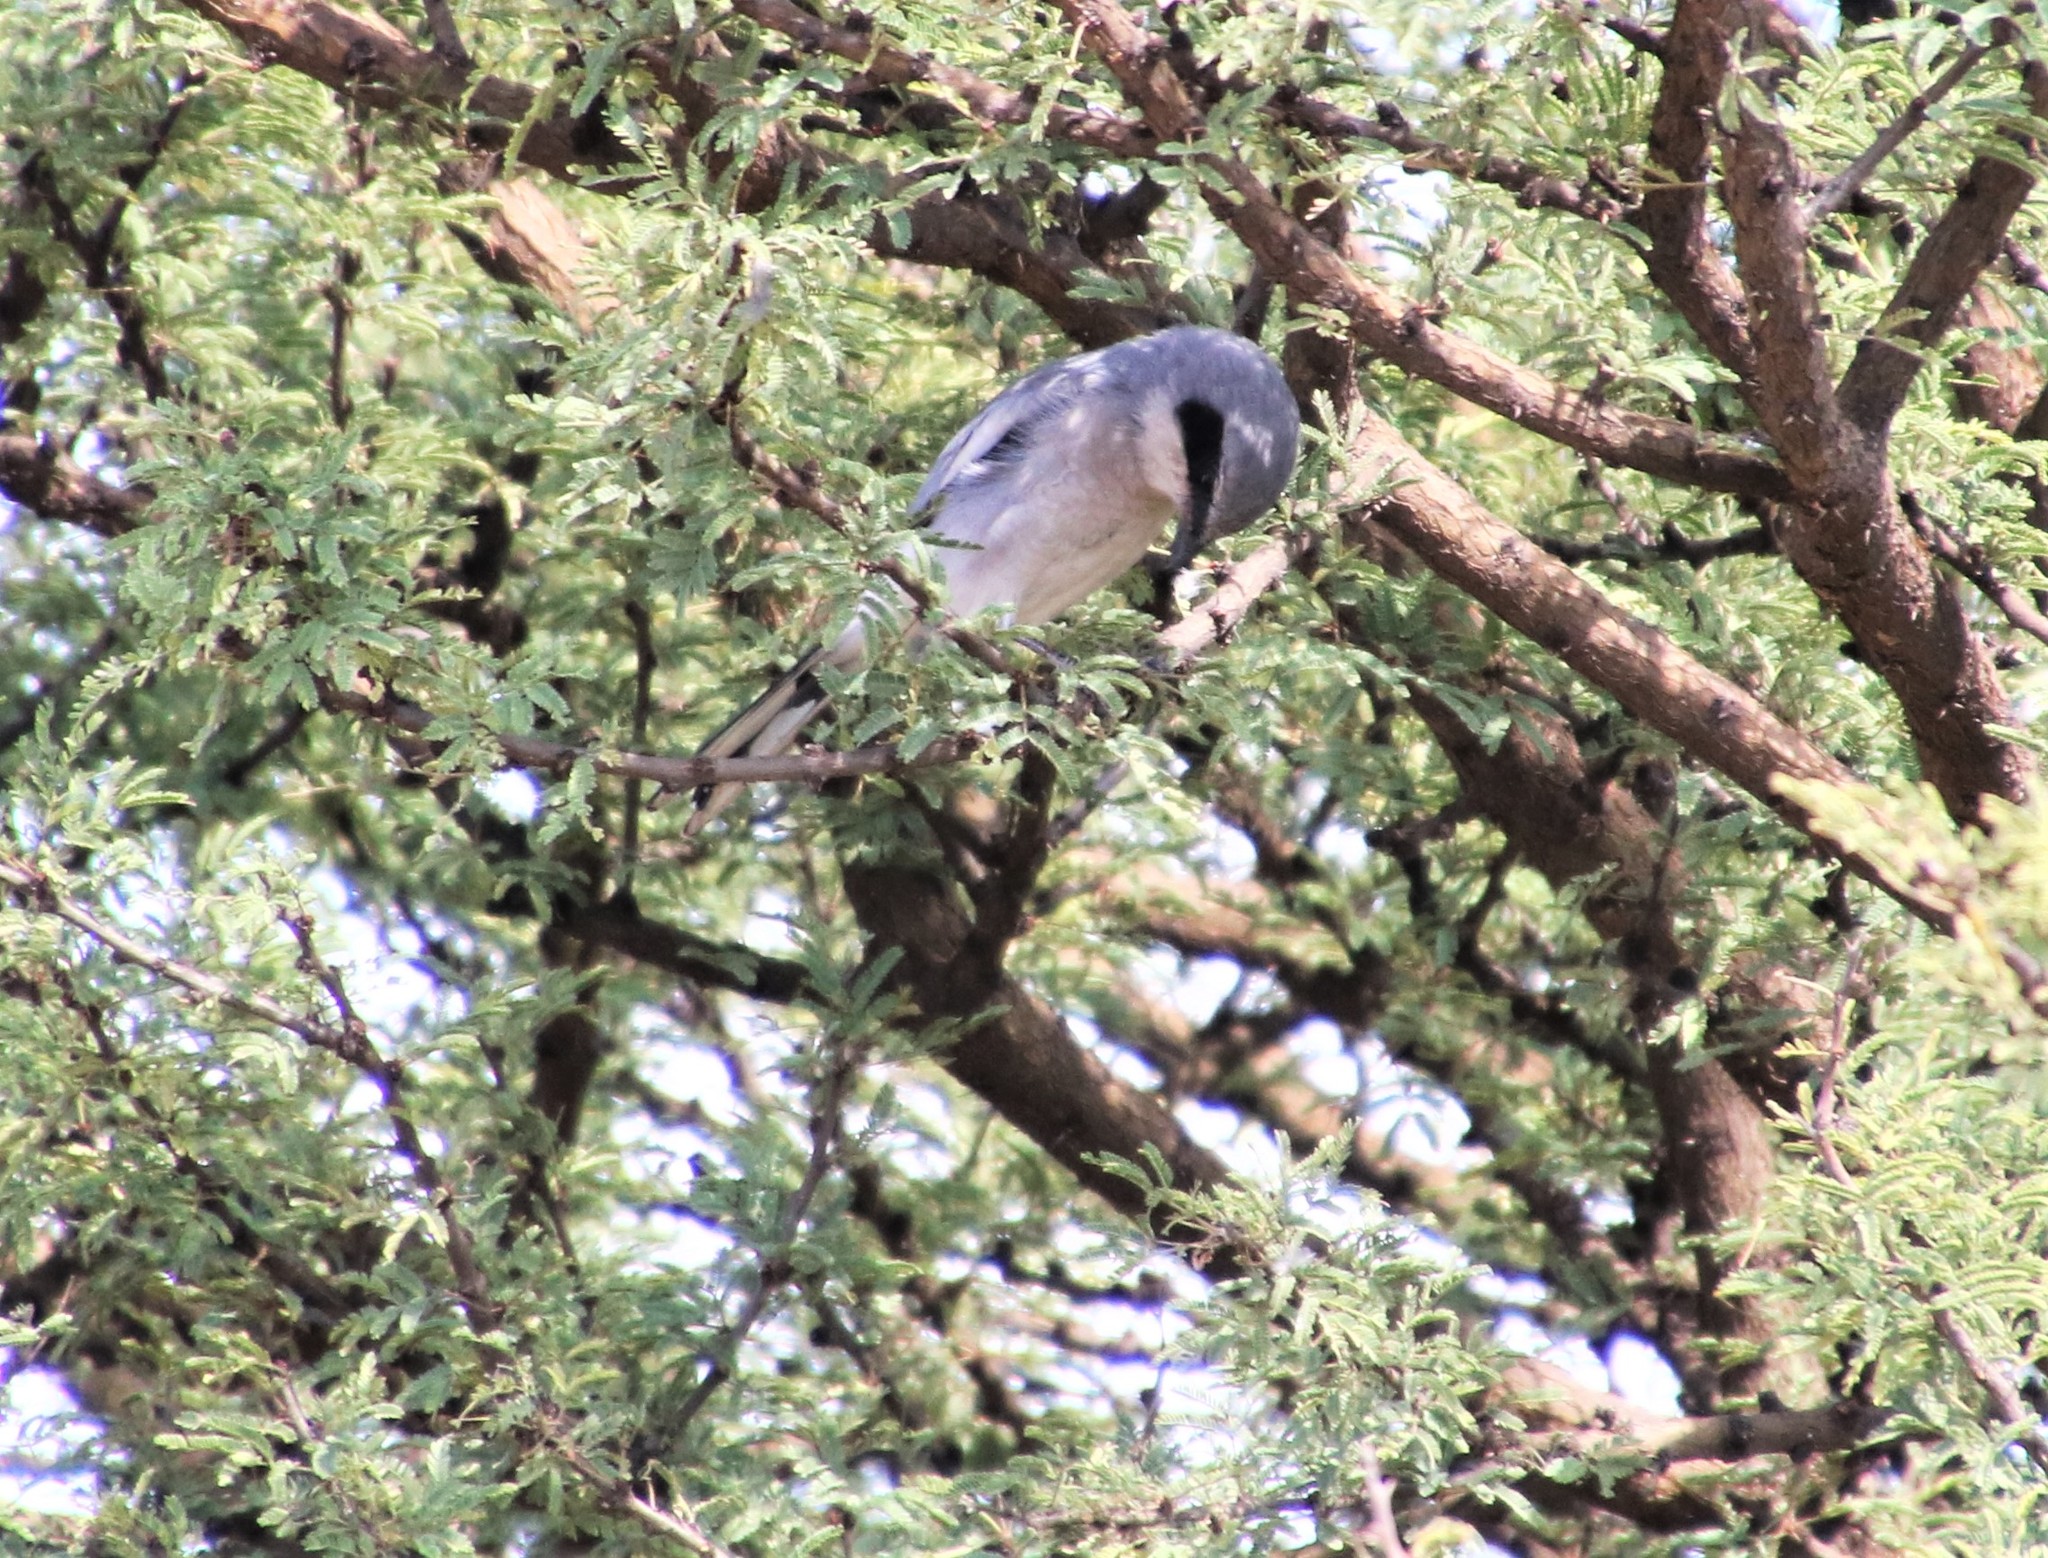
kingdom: Animalia
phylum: Chordata
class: Aves
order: Passeriformes
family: Laniidae
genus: Lanius
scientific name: Lanius ludovicianus
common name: Loggerhead shrike
